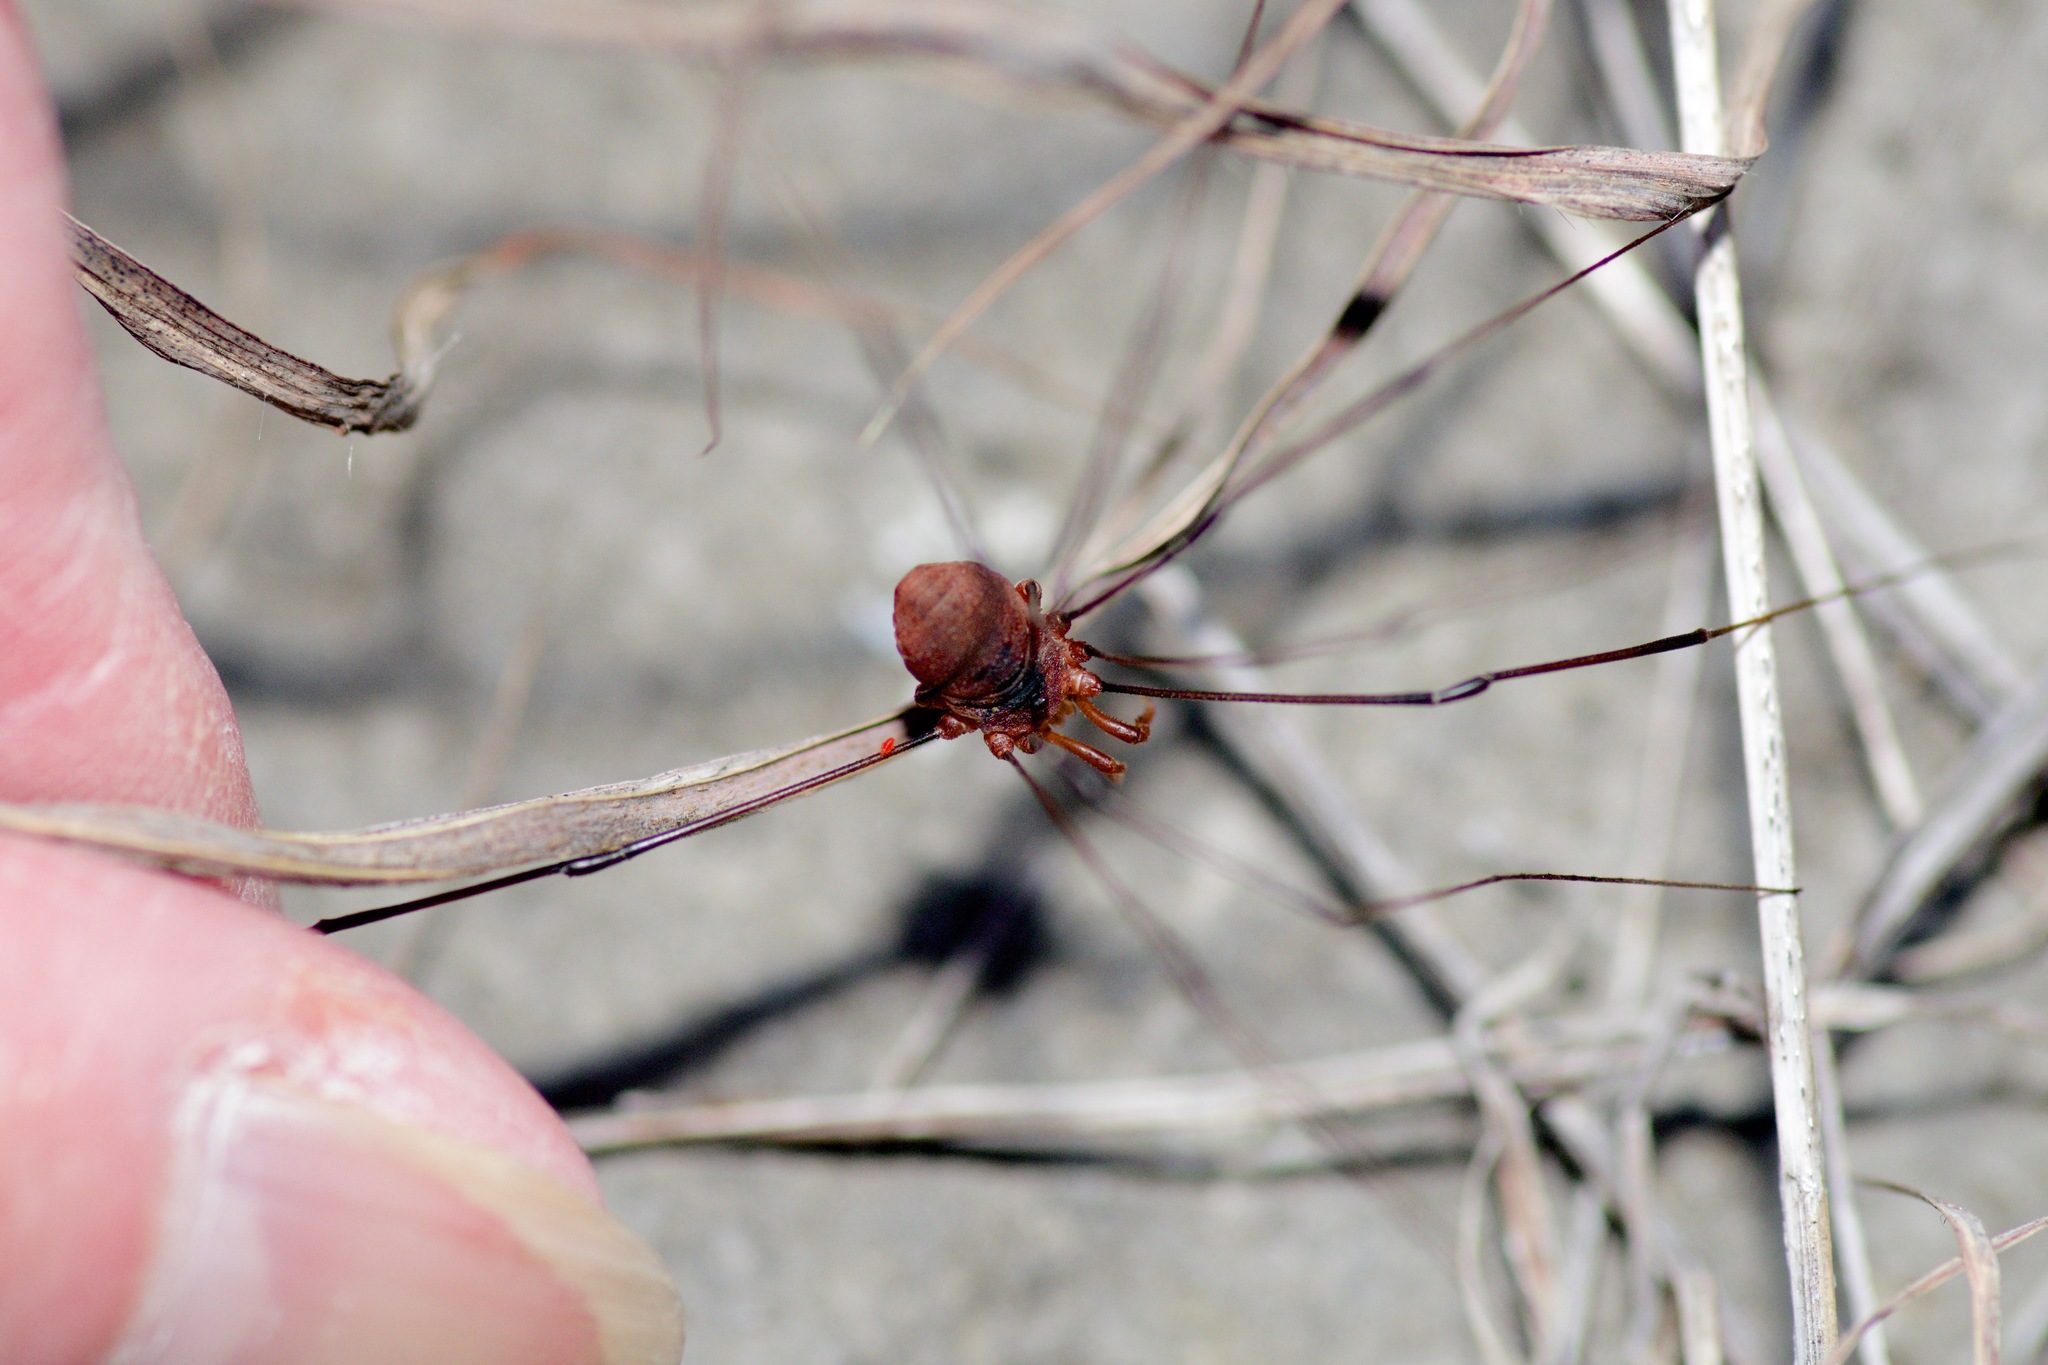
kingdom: Animalia
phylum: Arthropoda
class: Arachnida
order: Opiliones
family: Sclerosomatidae
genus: Leiobunum
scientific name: Leiobunum vittatum
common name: Eastern harvestman
